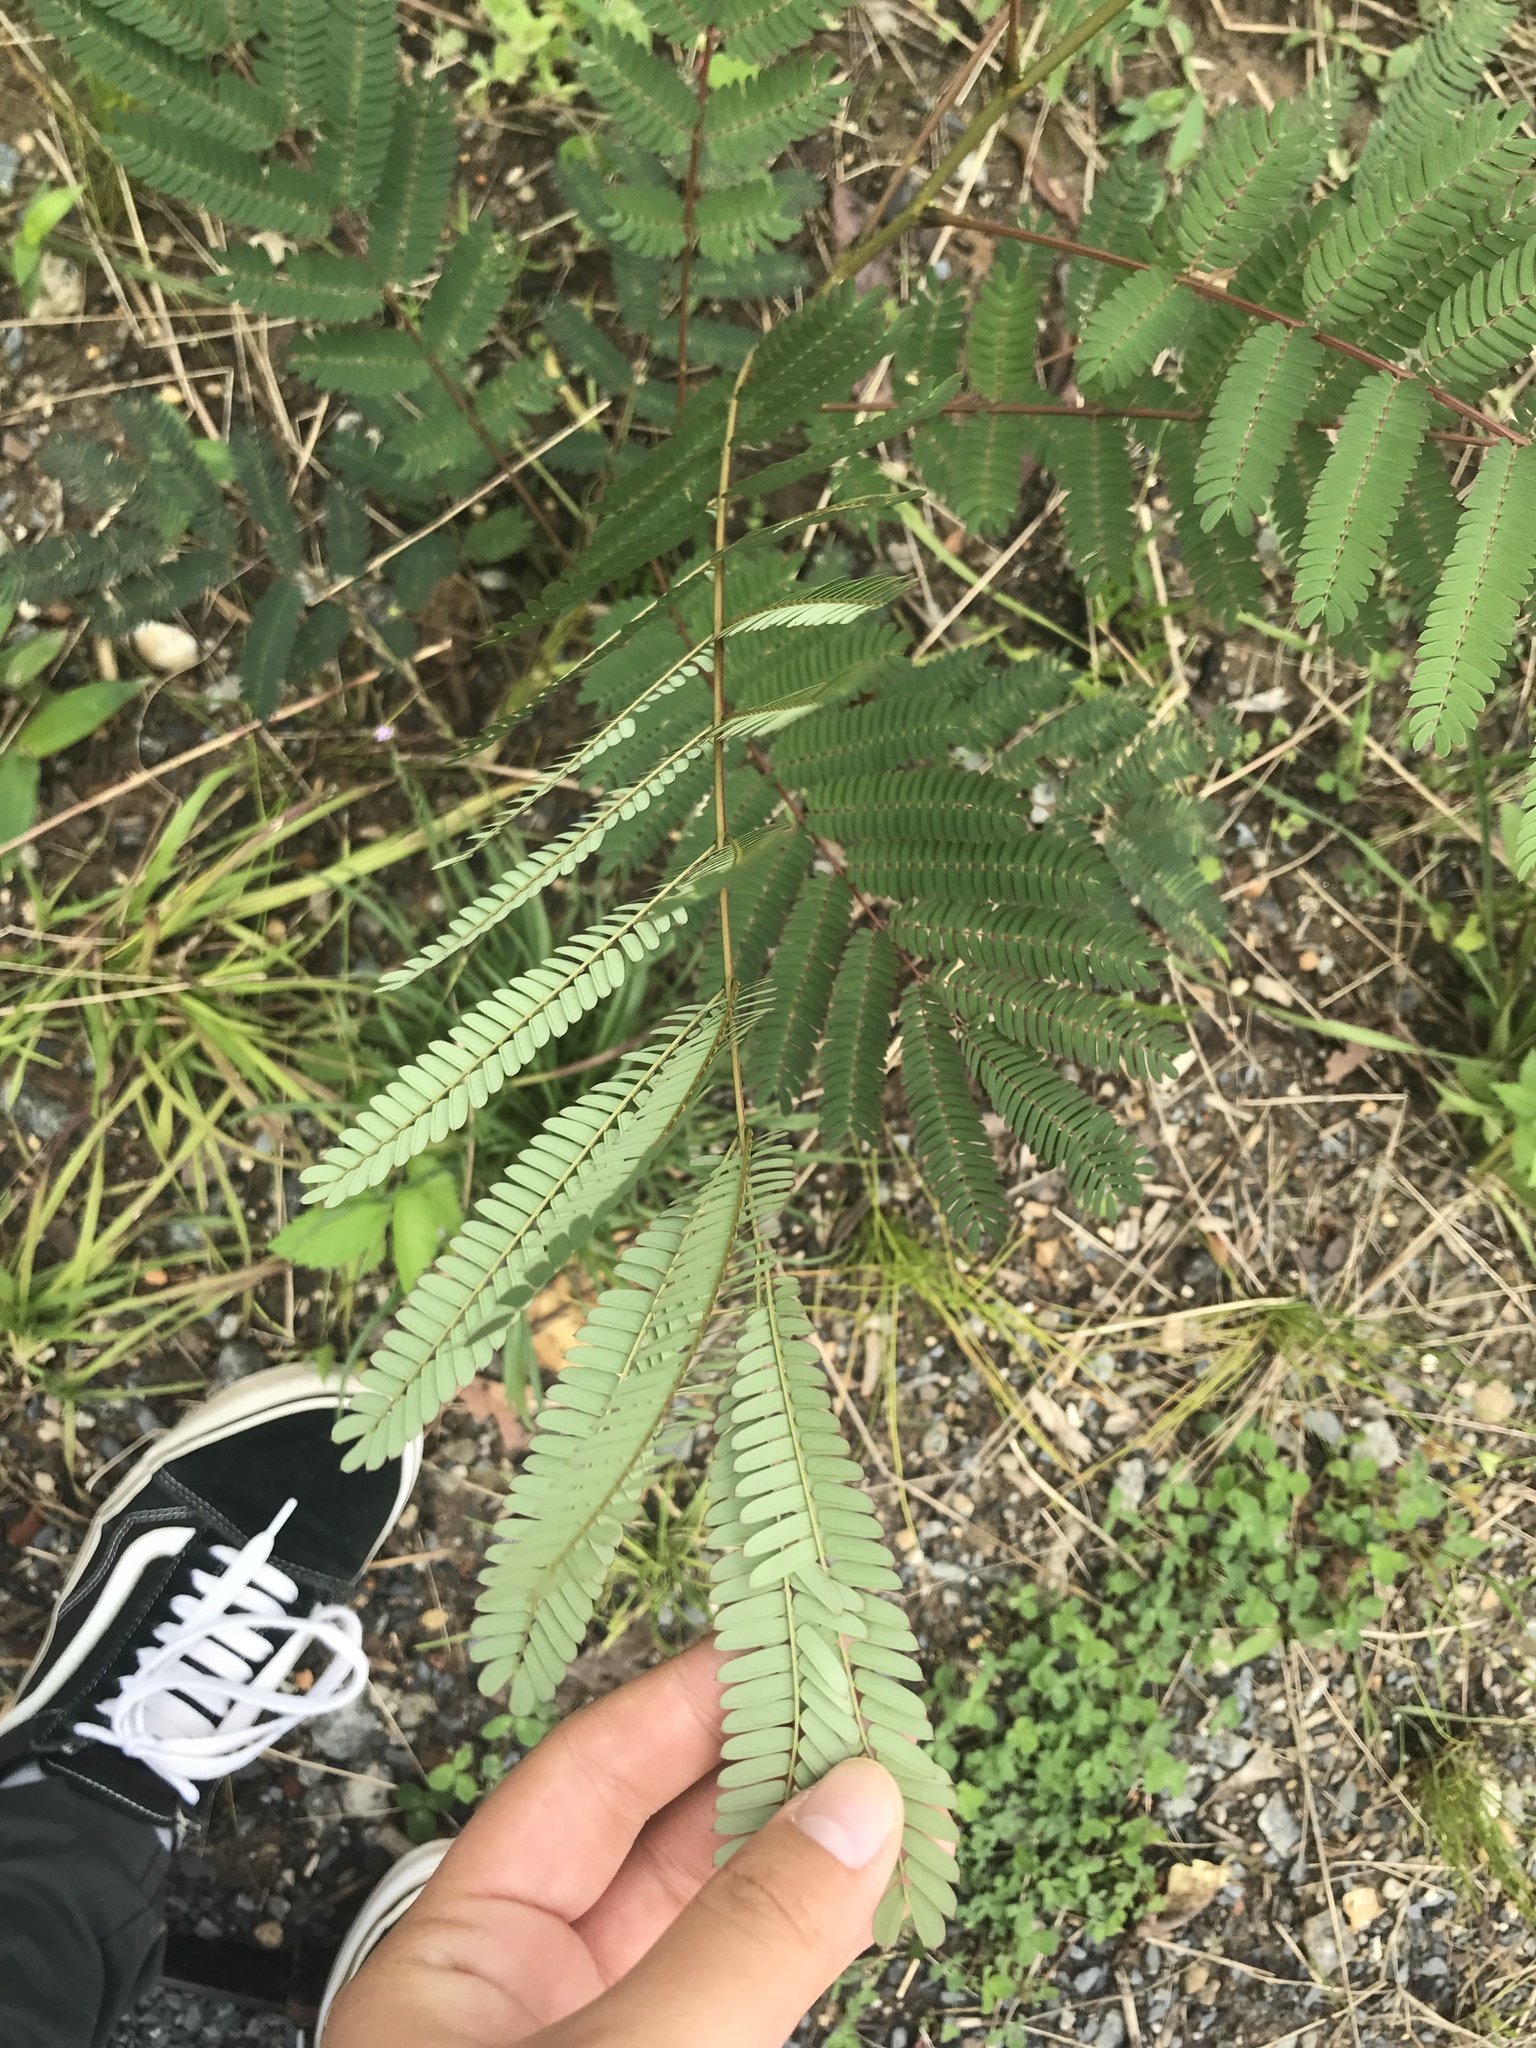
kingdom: Plantae
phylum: Tracheophyta
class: Magnoliopsida
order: Fabales
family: Fabaceae
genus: Albizia
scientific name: Albizia julibrissin
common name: Silktree
